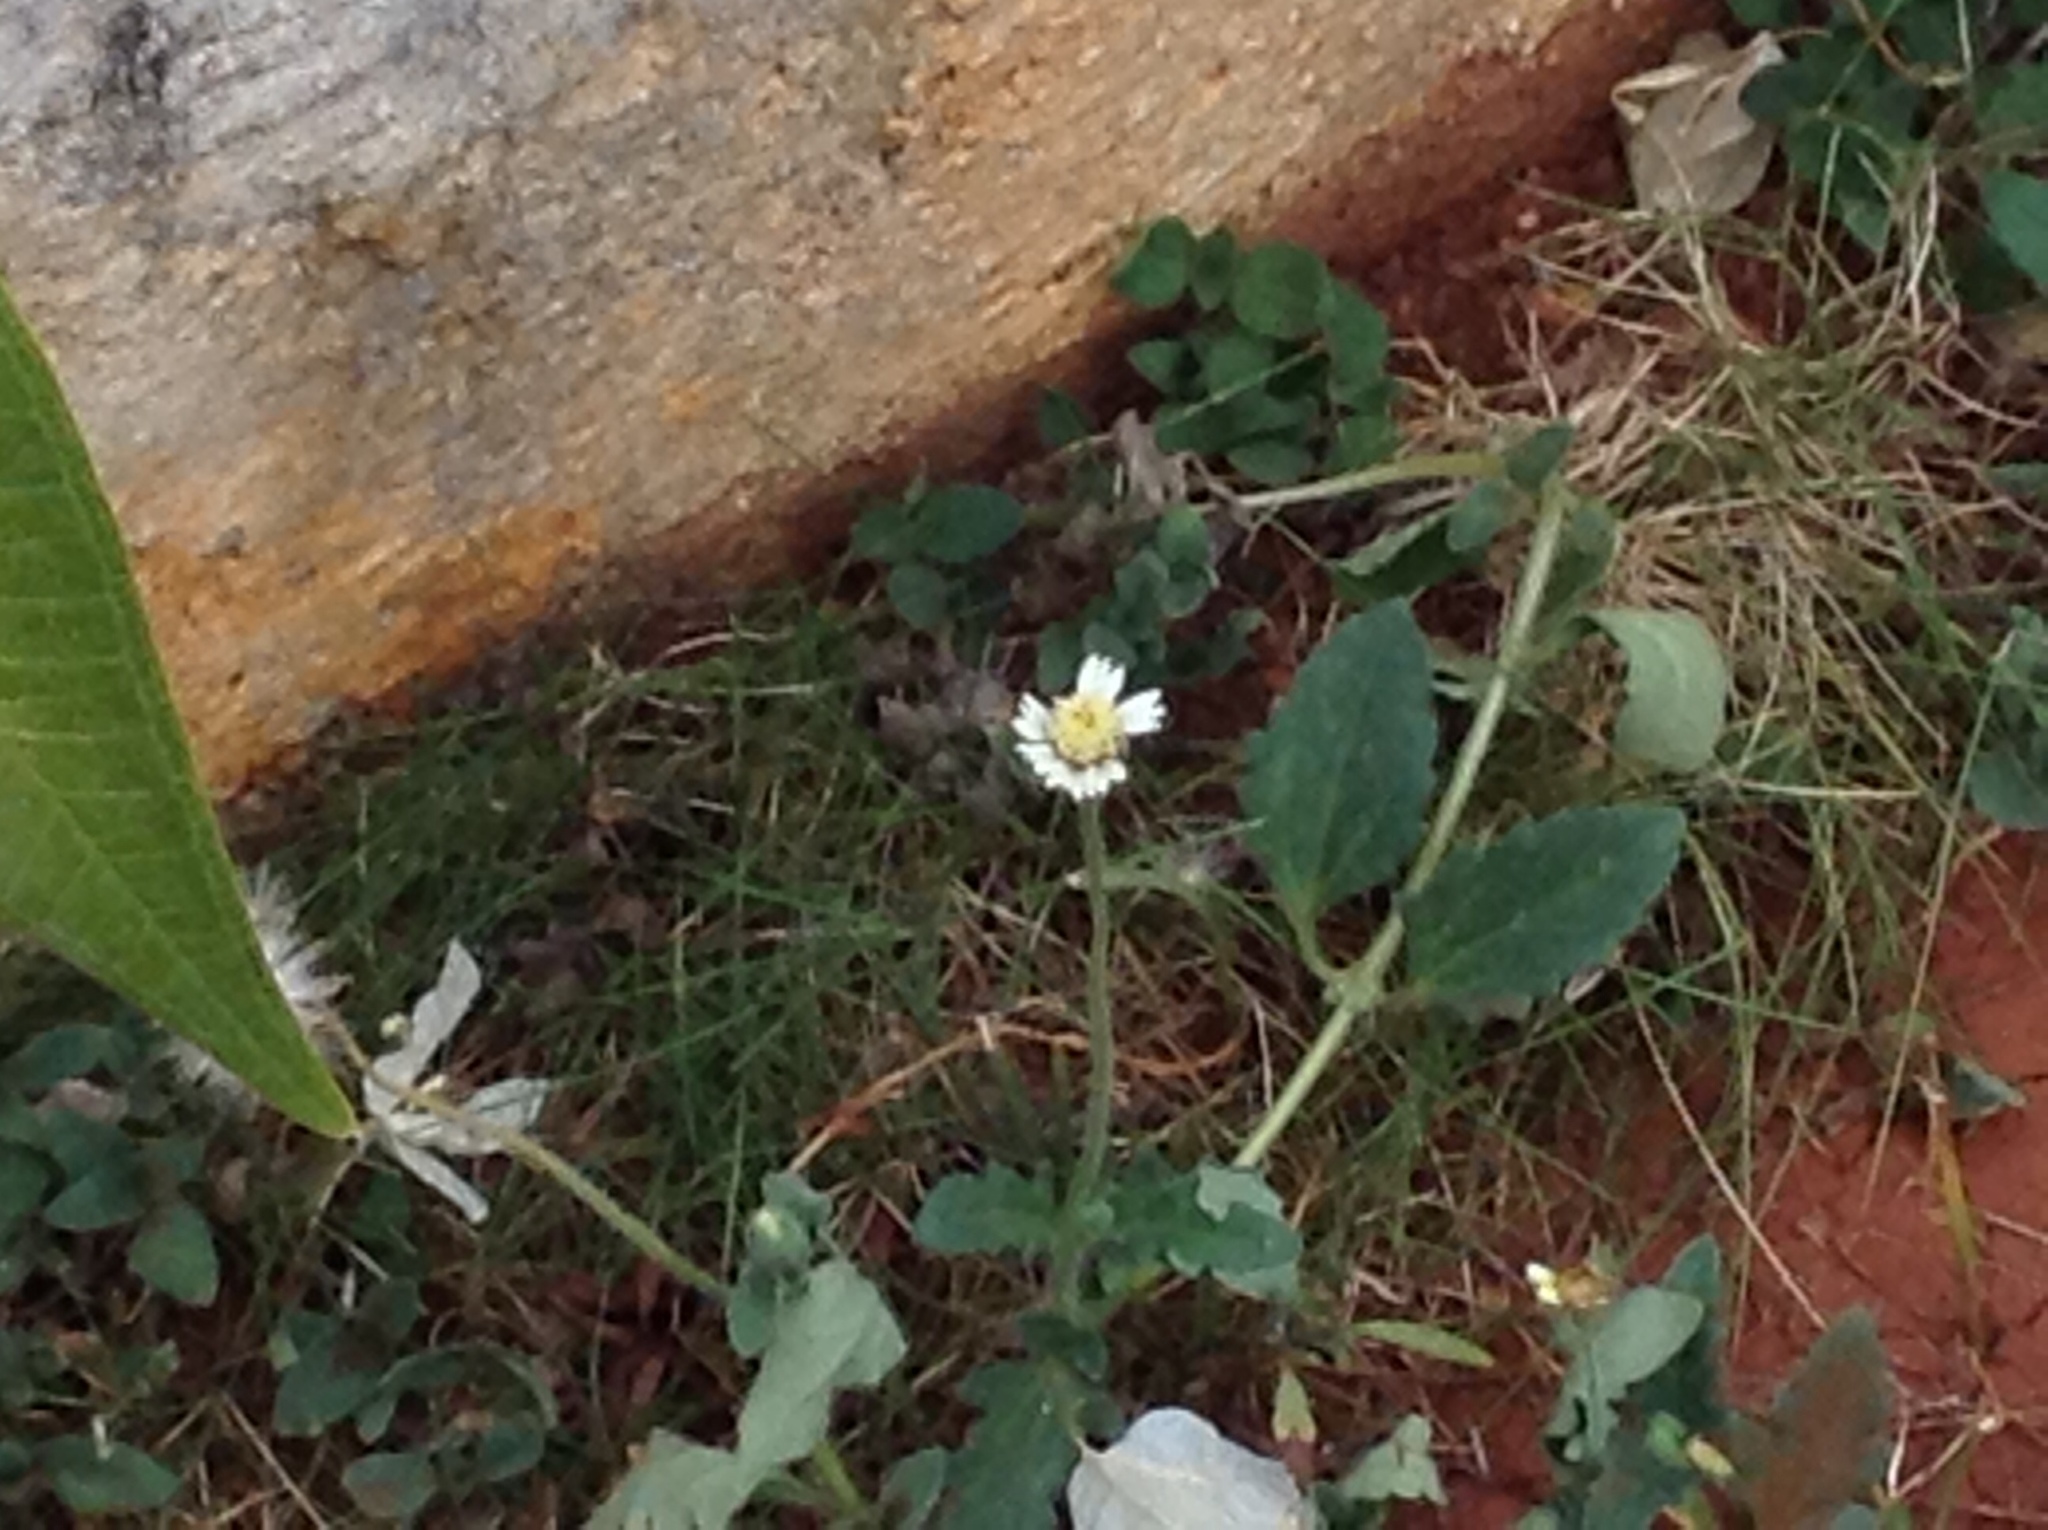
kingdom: Plantae
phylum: Tracheophyta
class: Magnoliopsida
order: Asterales
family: Asteraceae
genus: Tridax
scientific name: Tridax procumbens
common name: Coatbuttons
